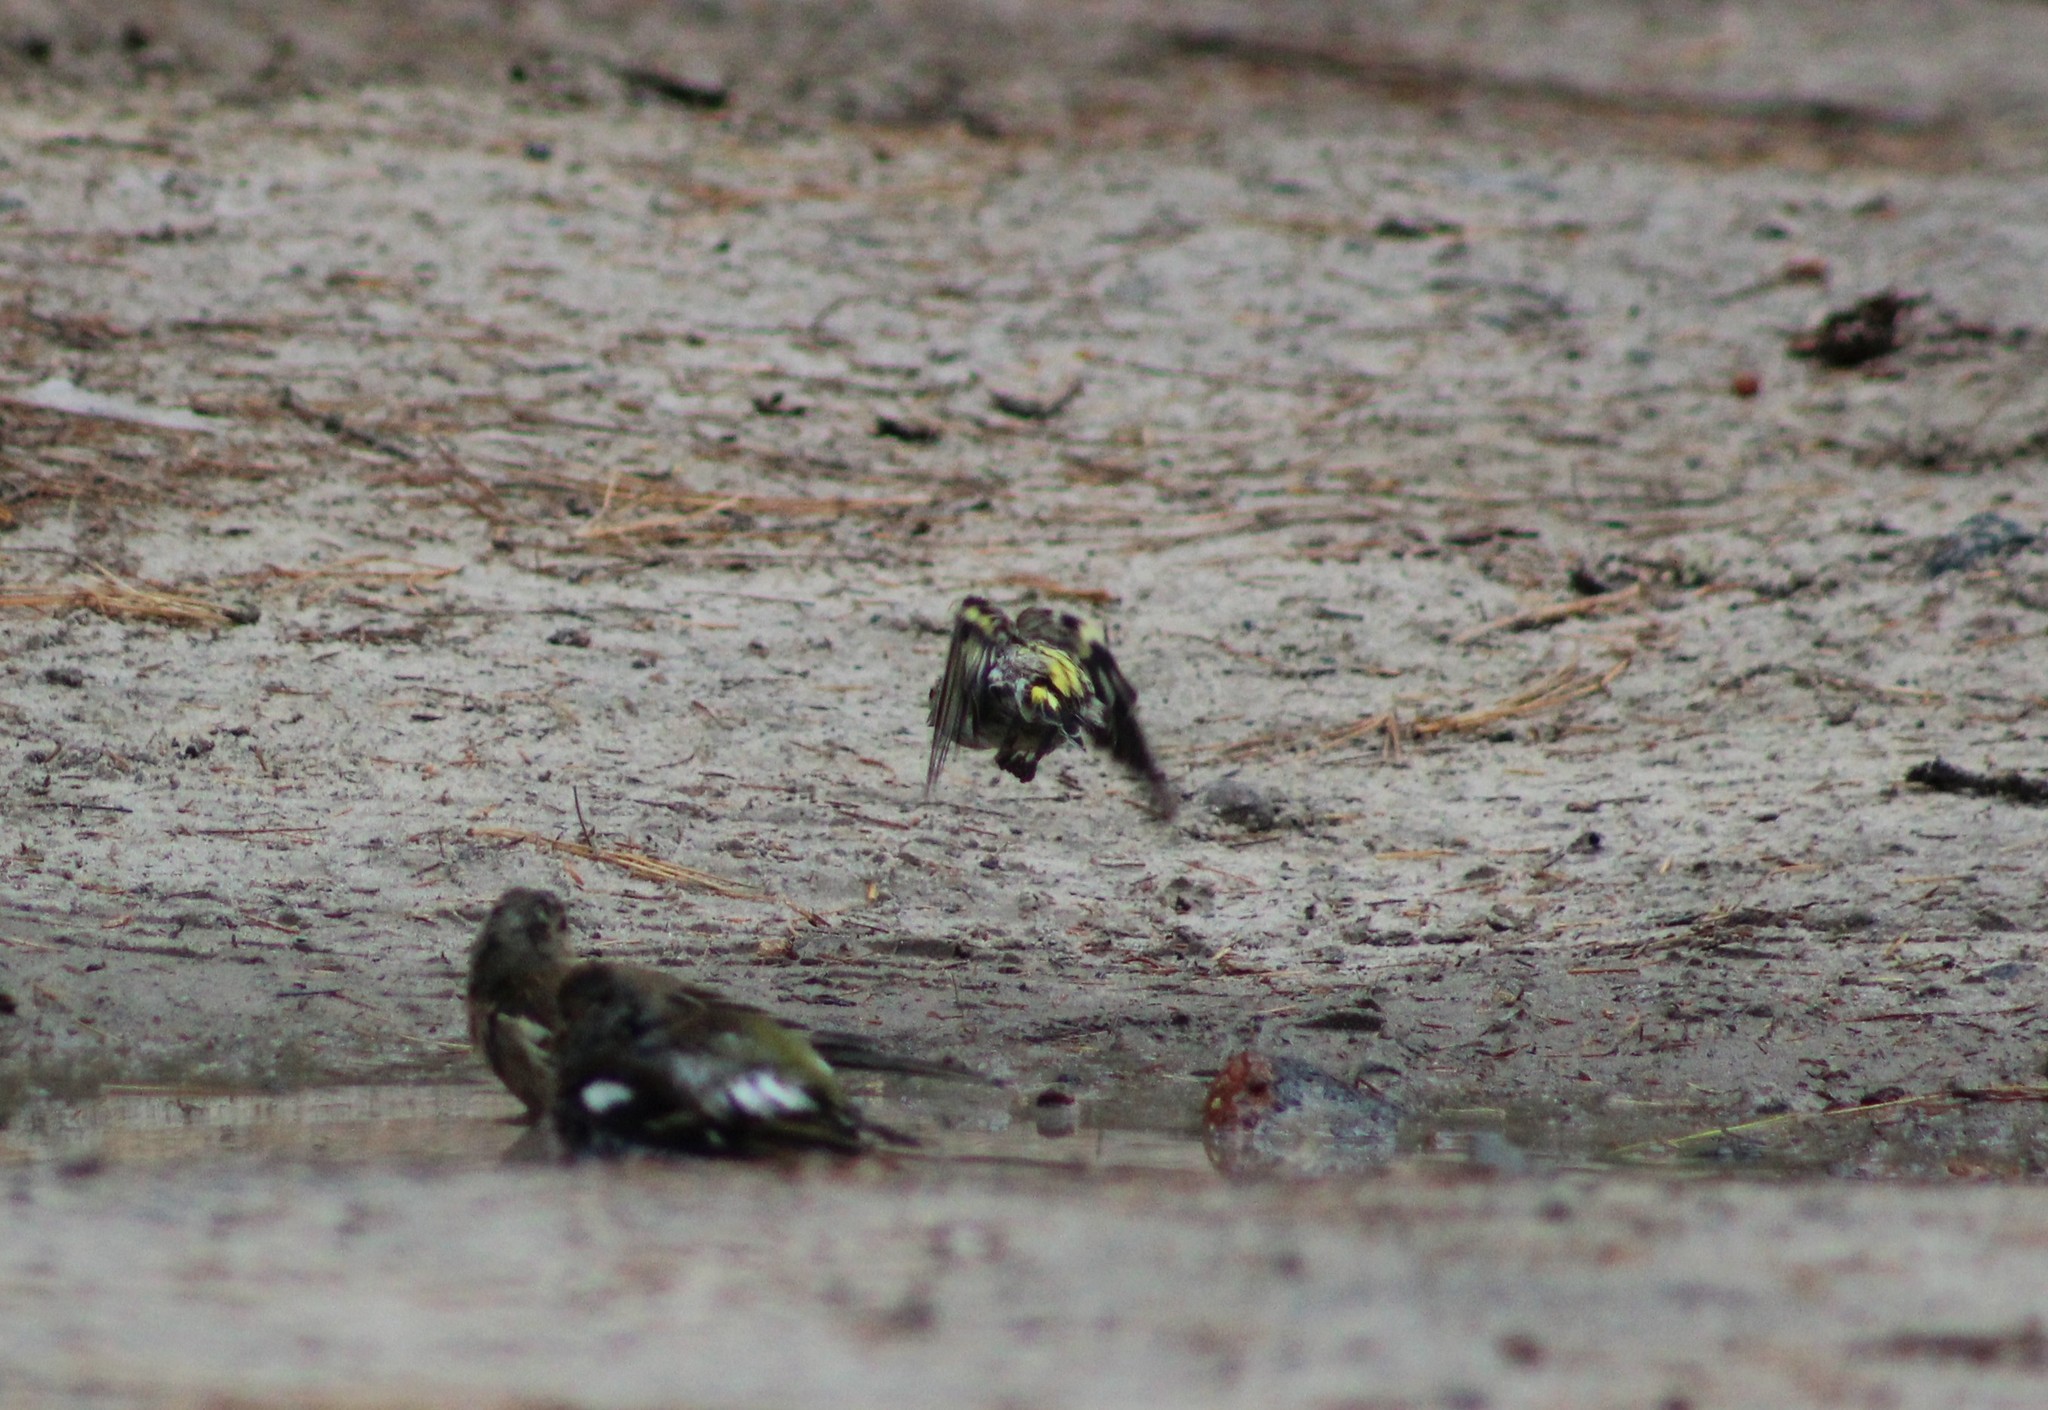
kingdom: Animalia
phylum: Chordata
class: Aves
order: Passeriformes
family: Fringillidae
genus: Spinus
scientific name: Spinus spinus
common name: Eurasian siskin
